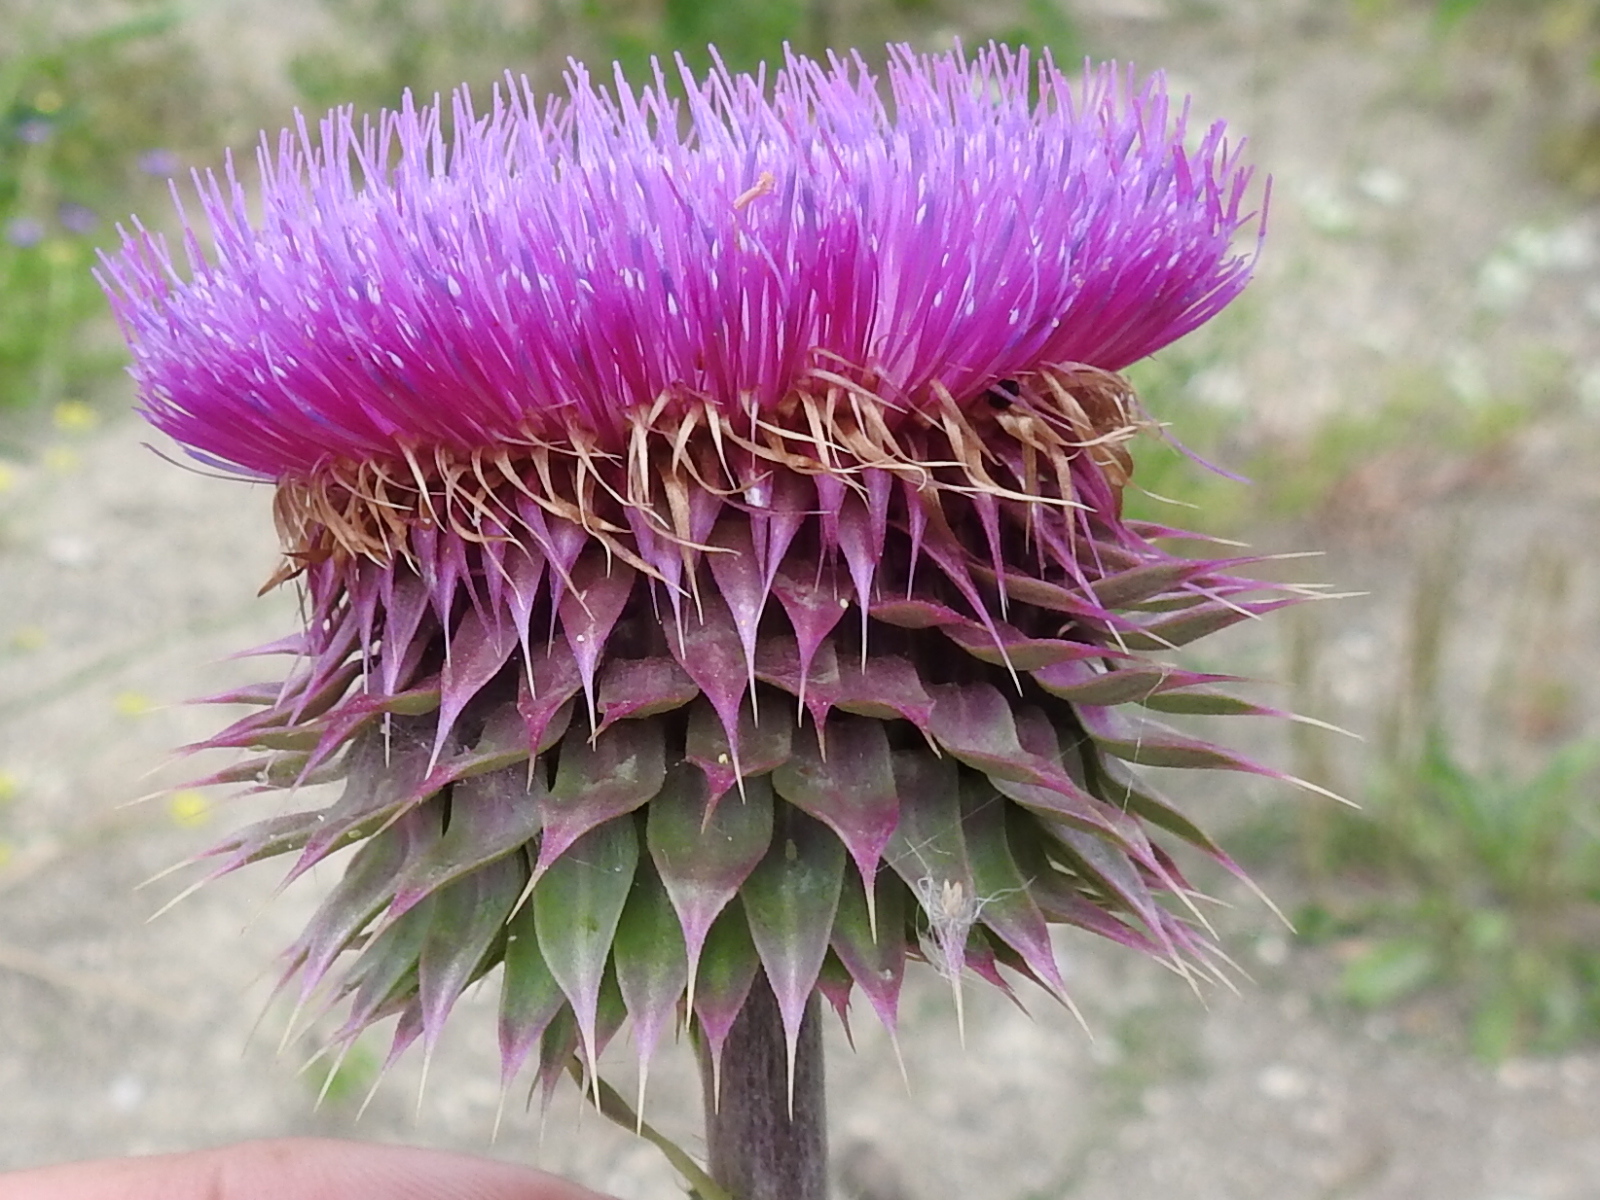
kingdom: Plantae
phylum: Tracheophyta
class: Magnoliopsida
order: Asterales
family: Asteraceae
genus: Carduus
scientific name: Carduus nutans
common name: Musk thistle
